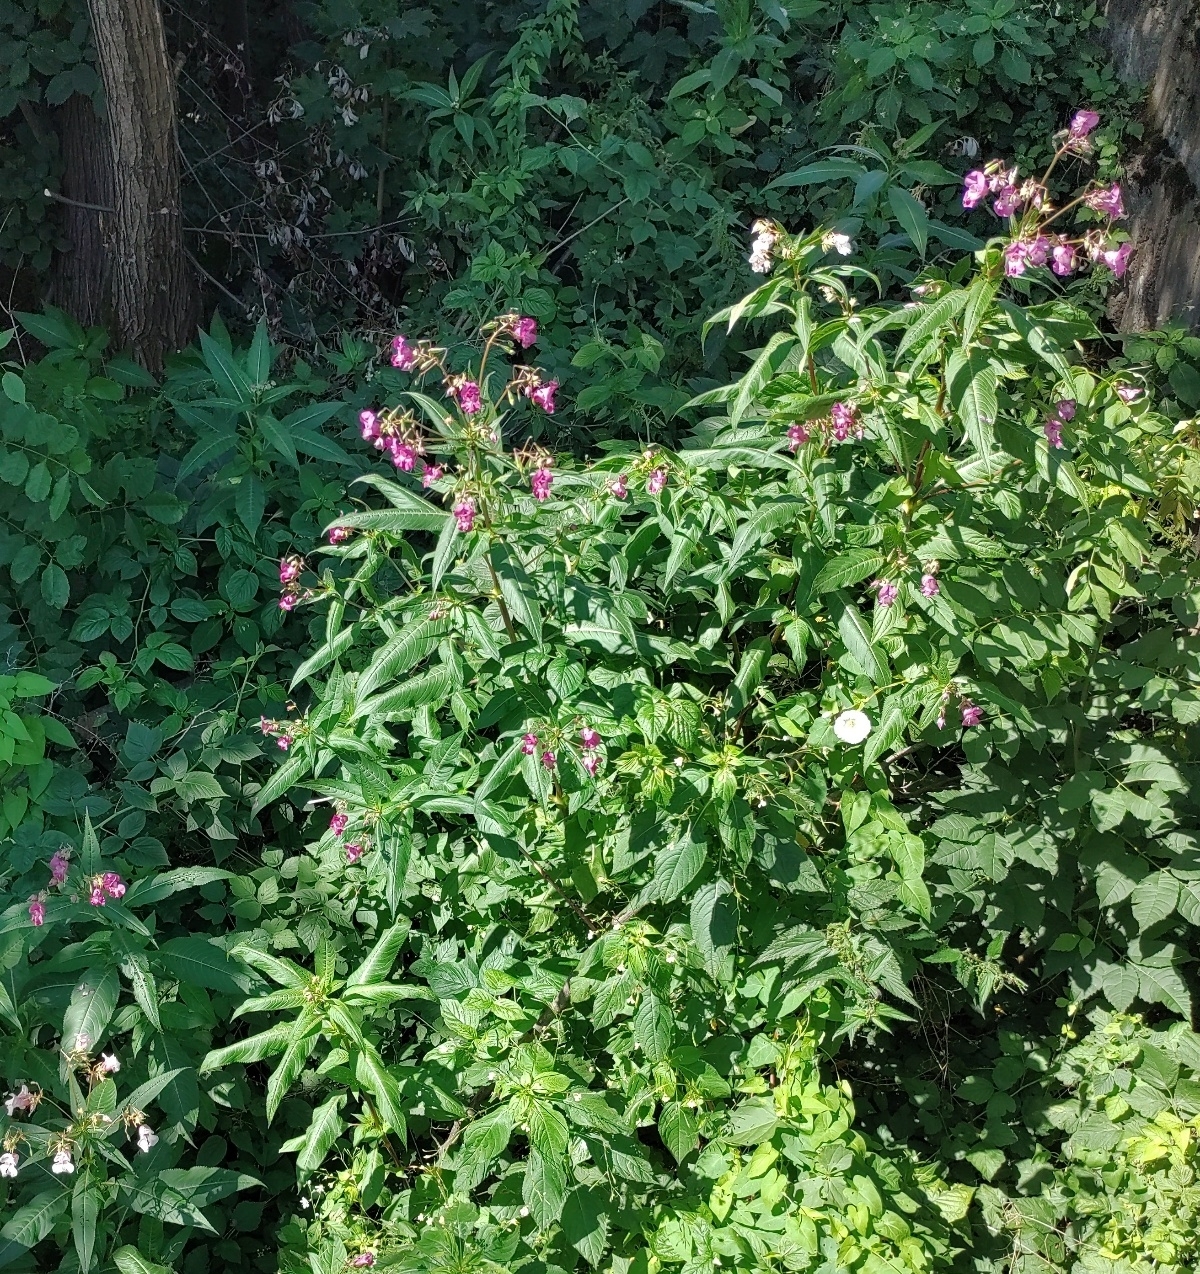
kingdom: Plantae
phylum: Tracheophyta
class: Magnoliopsida
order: Ericales
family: Balsaminaceae
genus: Impatiens
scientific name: Impatiens glandulifera
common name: Himalayan balsam
